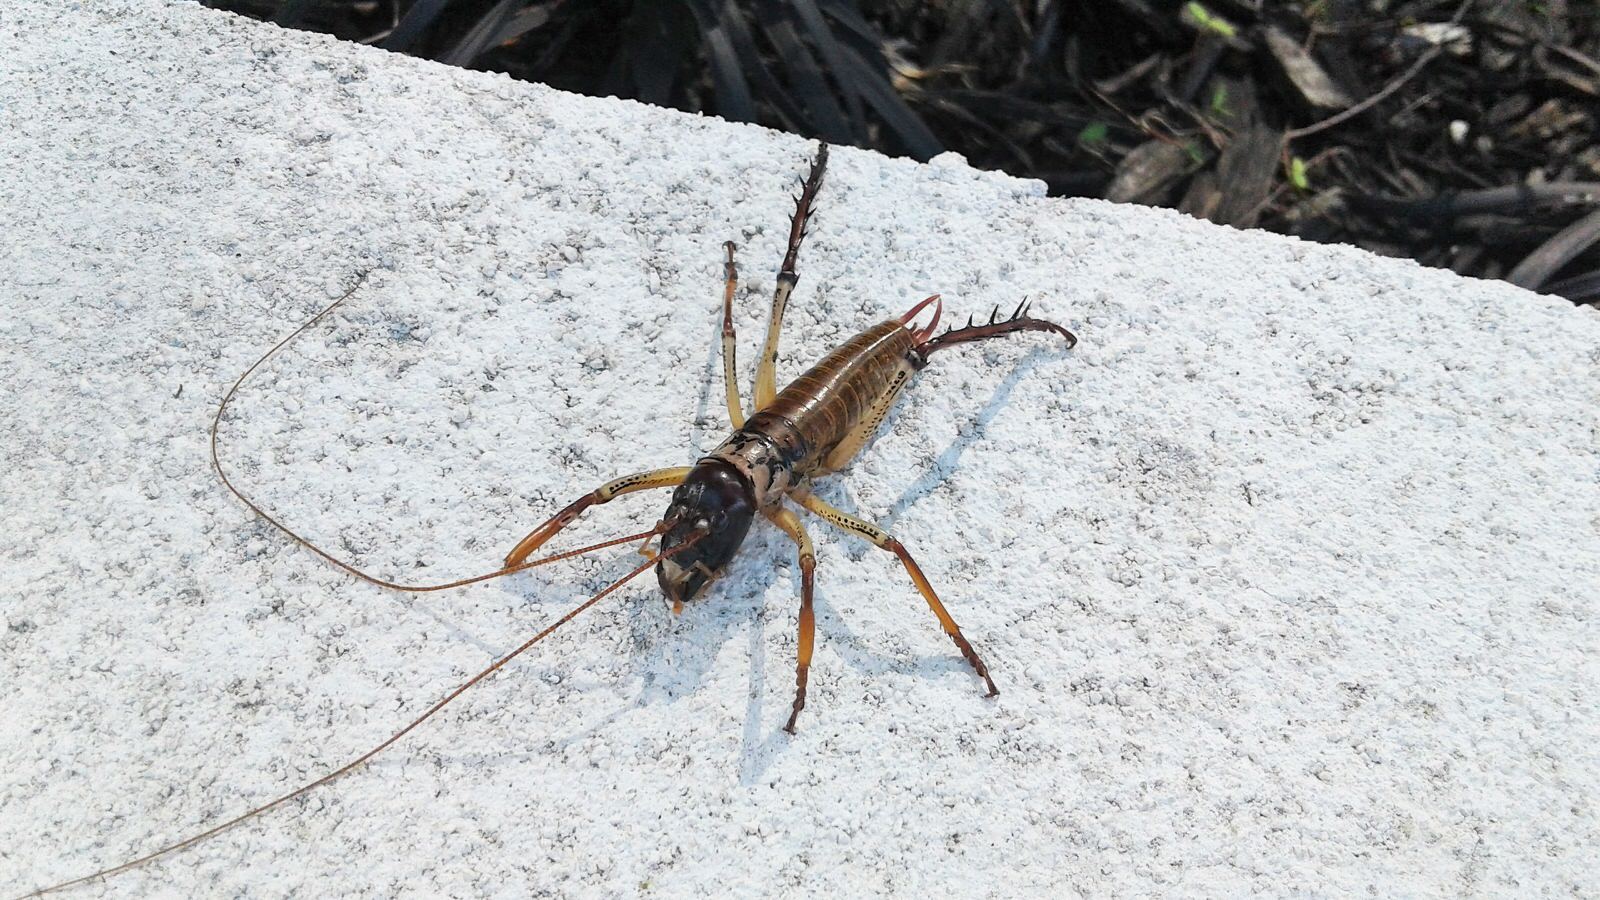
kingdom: Animalia
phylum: Arthropoda
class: Insecta
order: Orthoptera
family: Anostostomatidae
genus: Hemideina
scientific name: Hemideina thoracica
